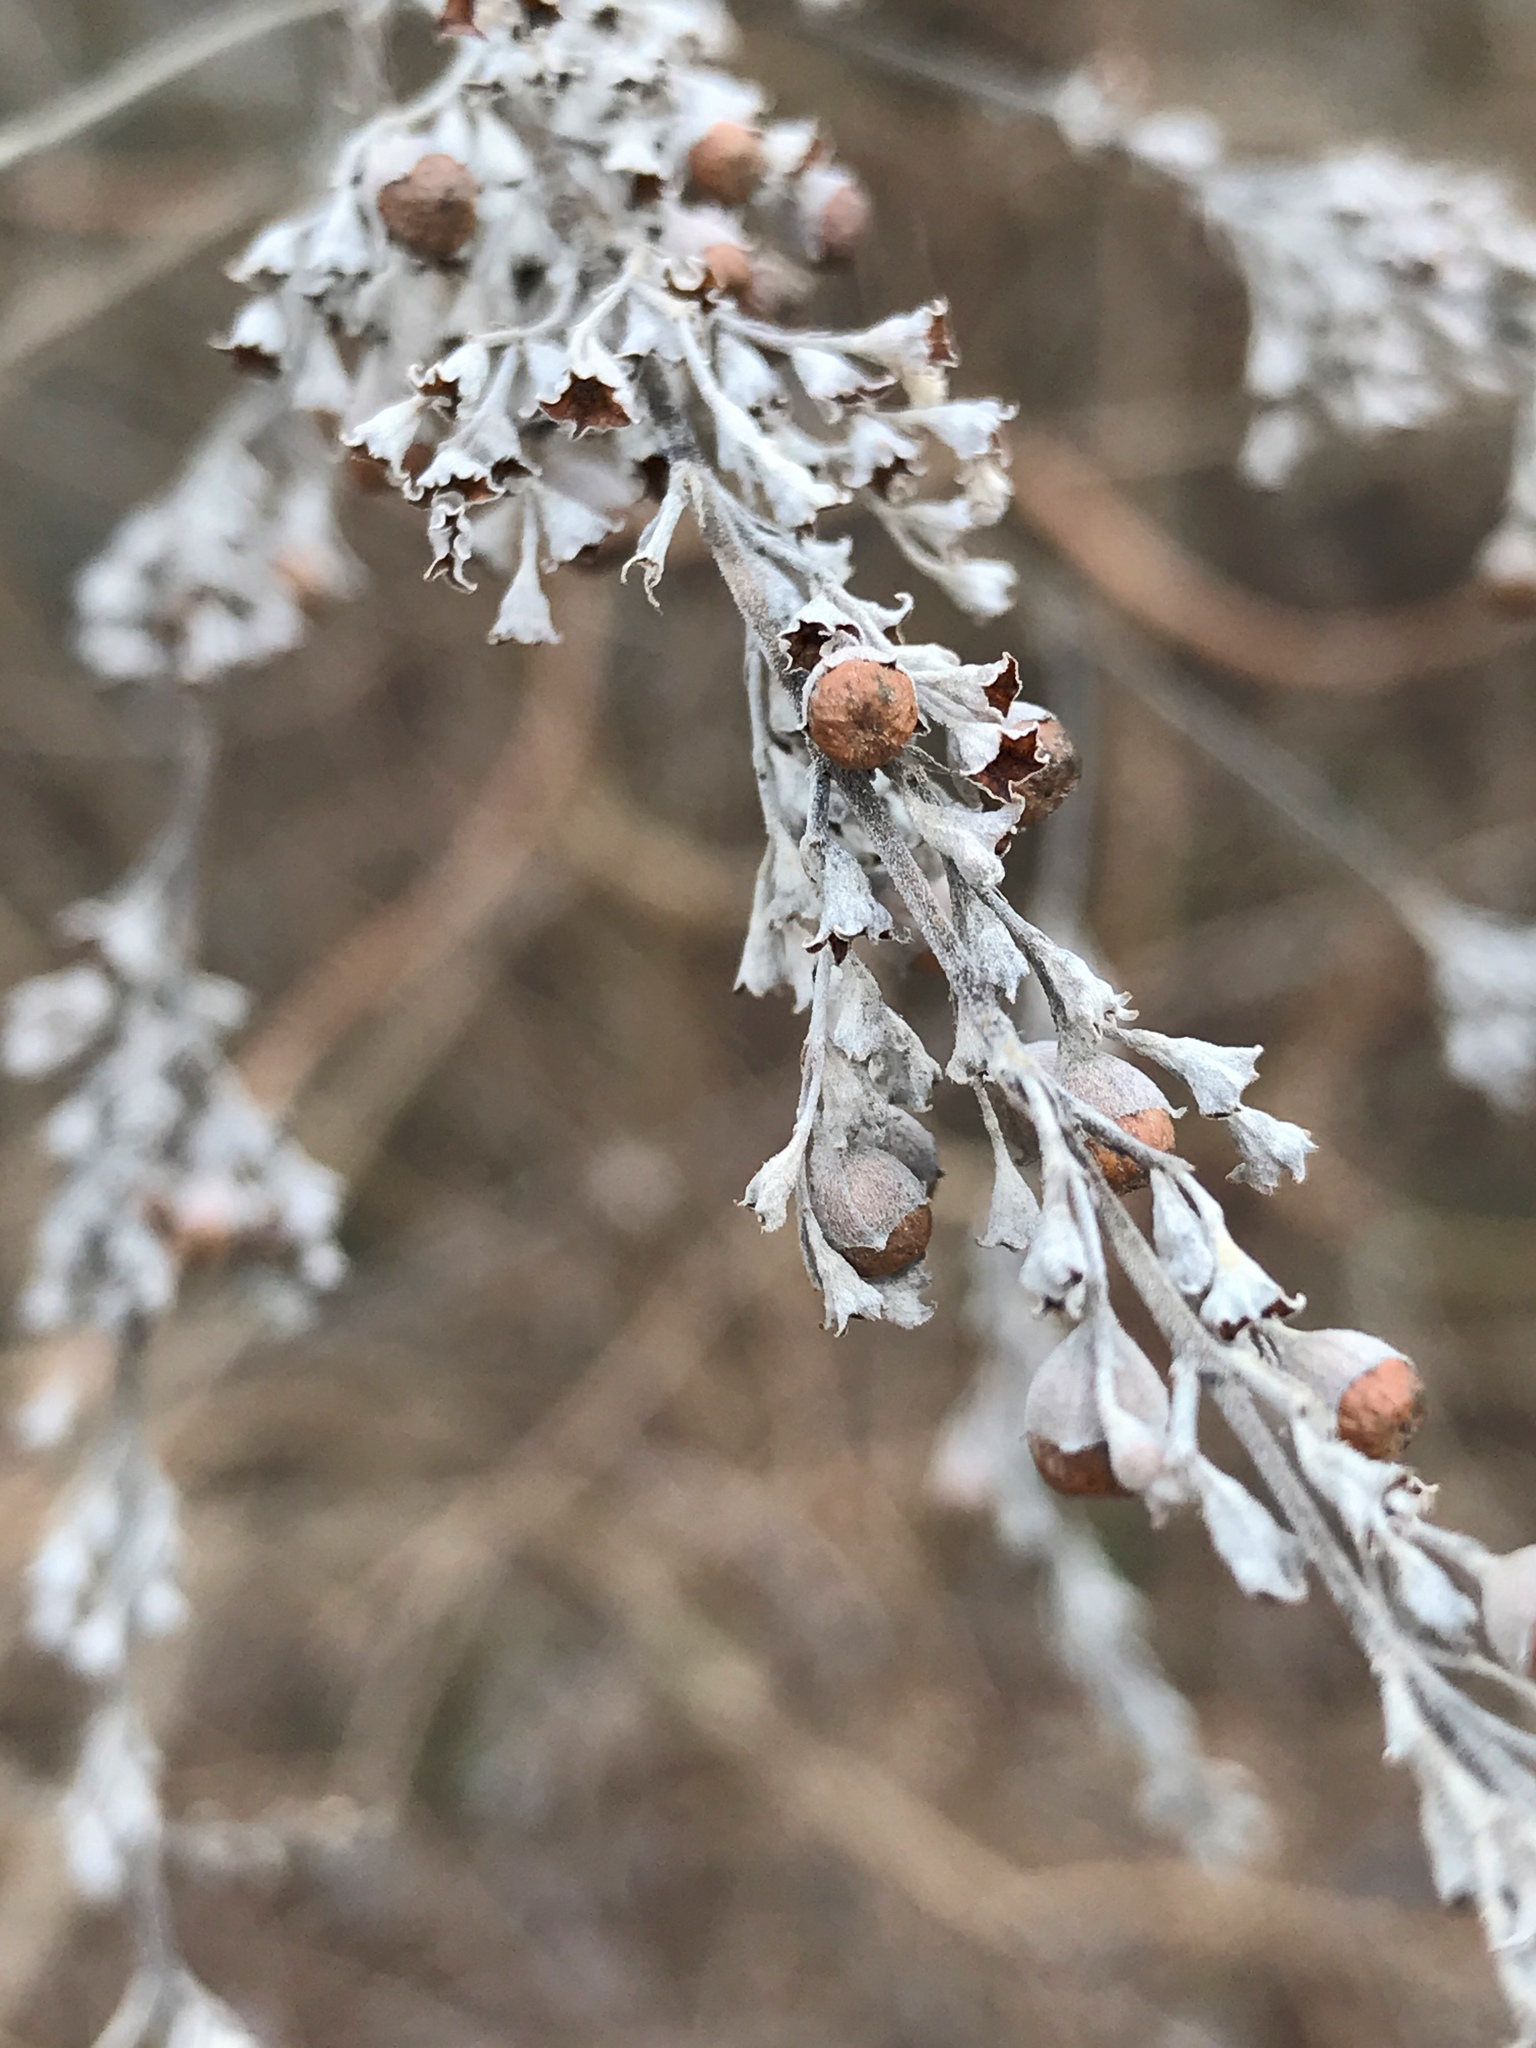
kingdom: Plantae
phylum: Tracheophyta
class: Magnoliopsida
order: Lamiales
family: Lamiaceae
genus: Vitex
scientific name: Vitex negundo
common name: Chinese chastetree
